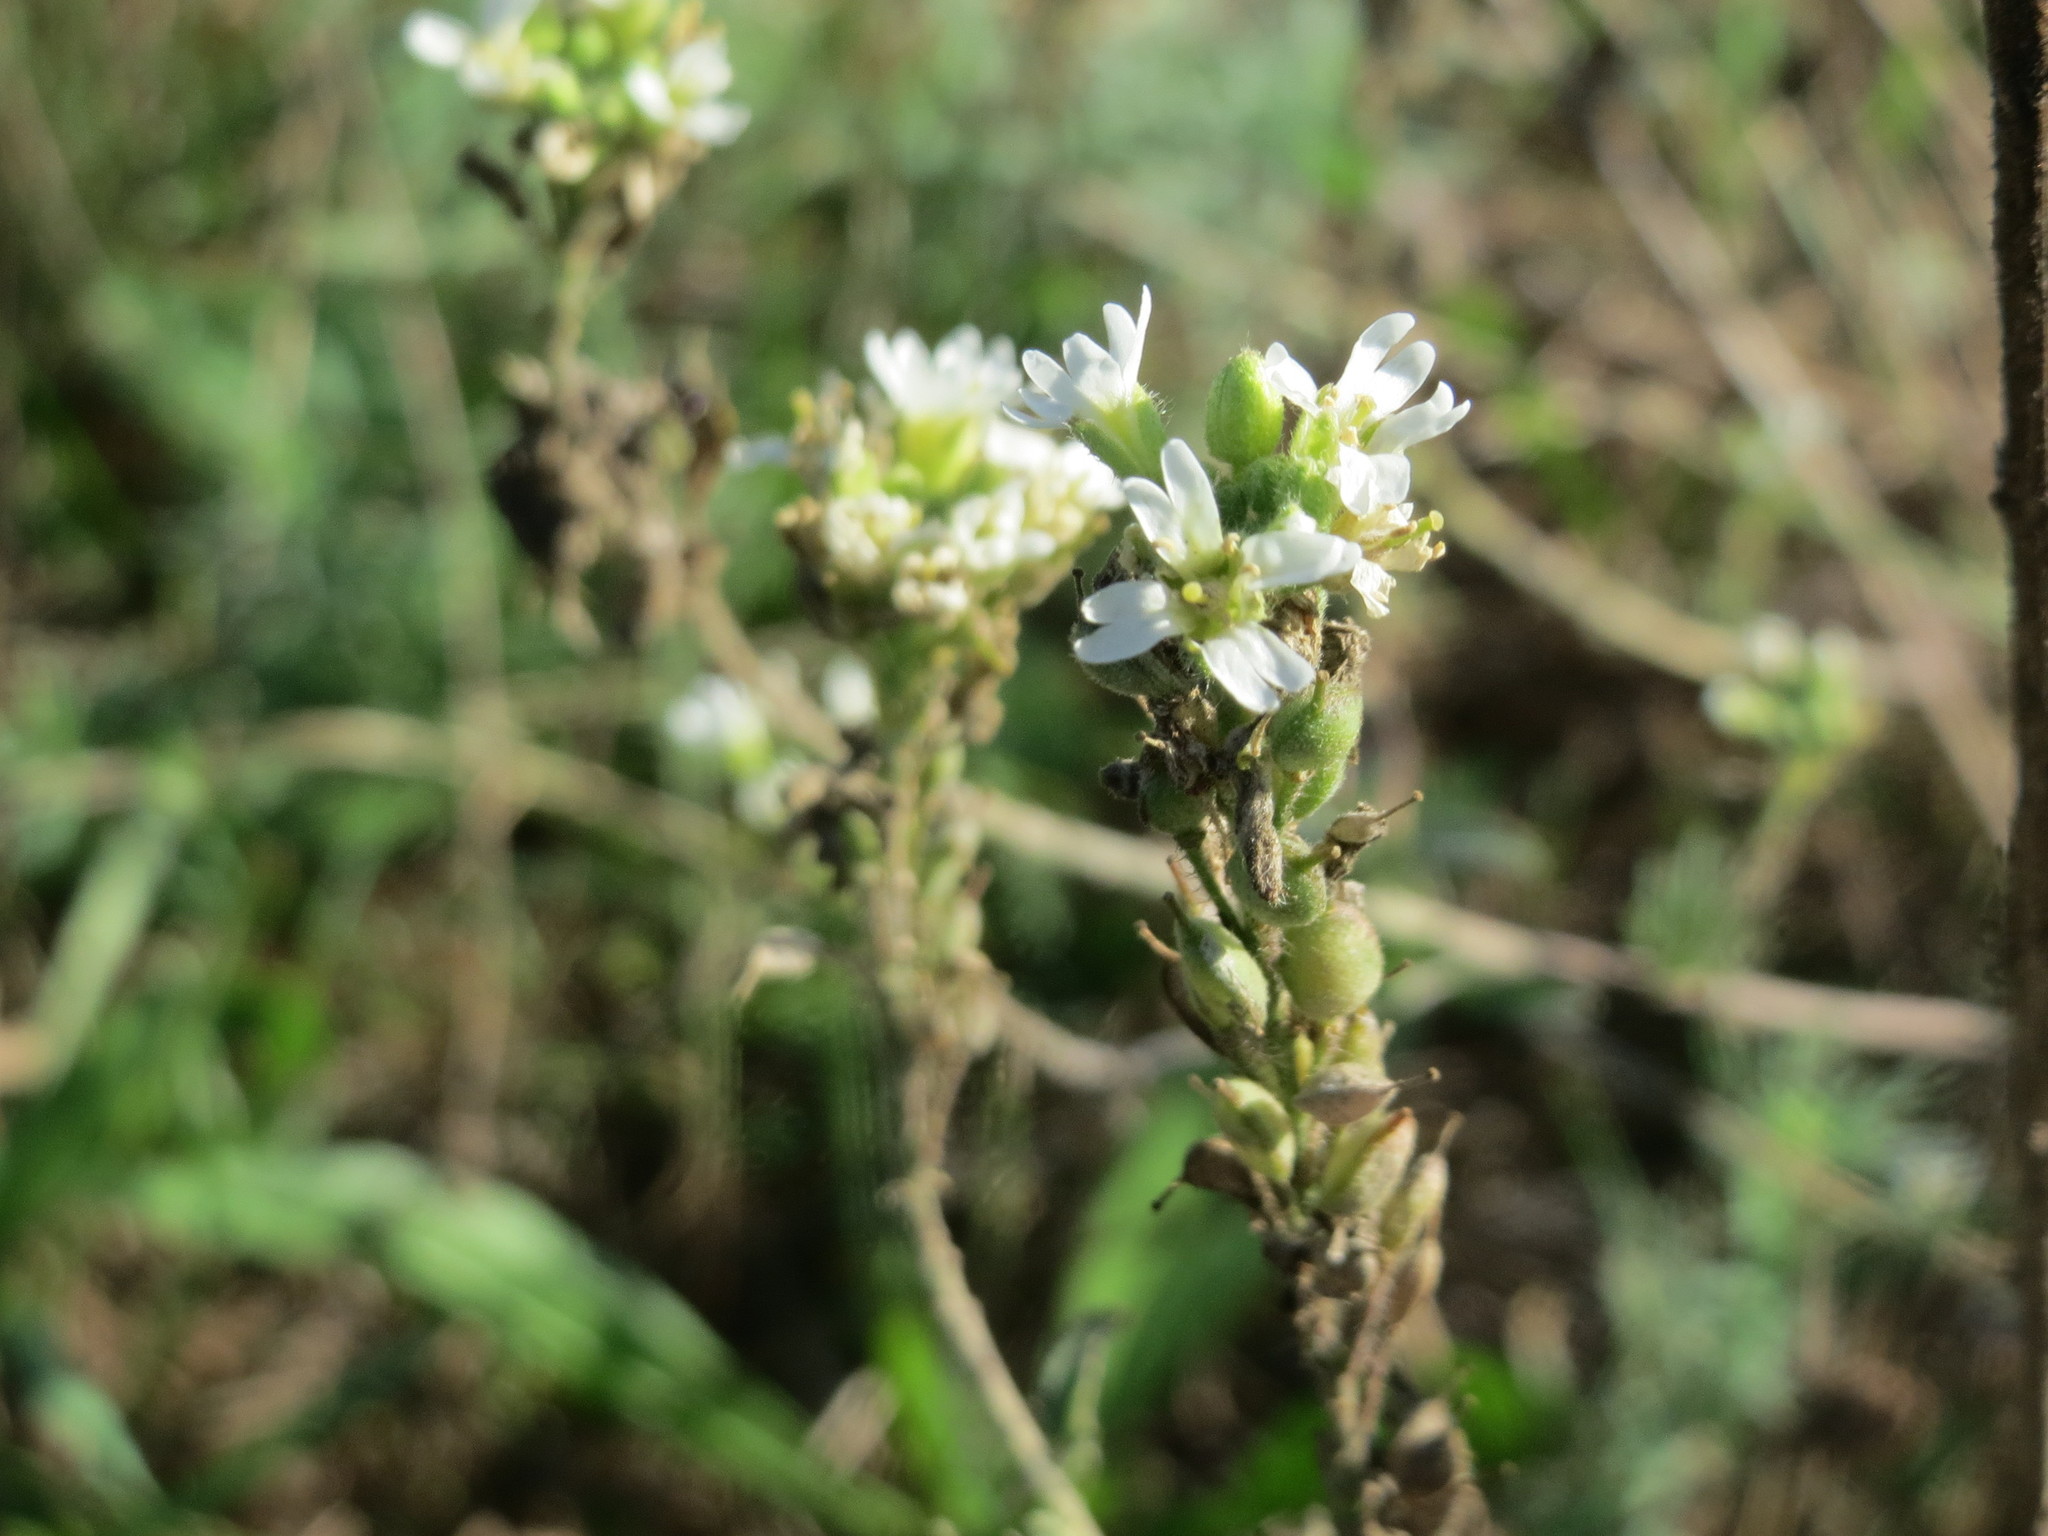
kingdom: Plantae
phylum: Tracheophyta
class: Magnoliopsida
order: Brassicales
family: Brassicaceae
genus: Berteroa
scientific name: Berteroa incana
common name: Hoary alison
